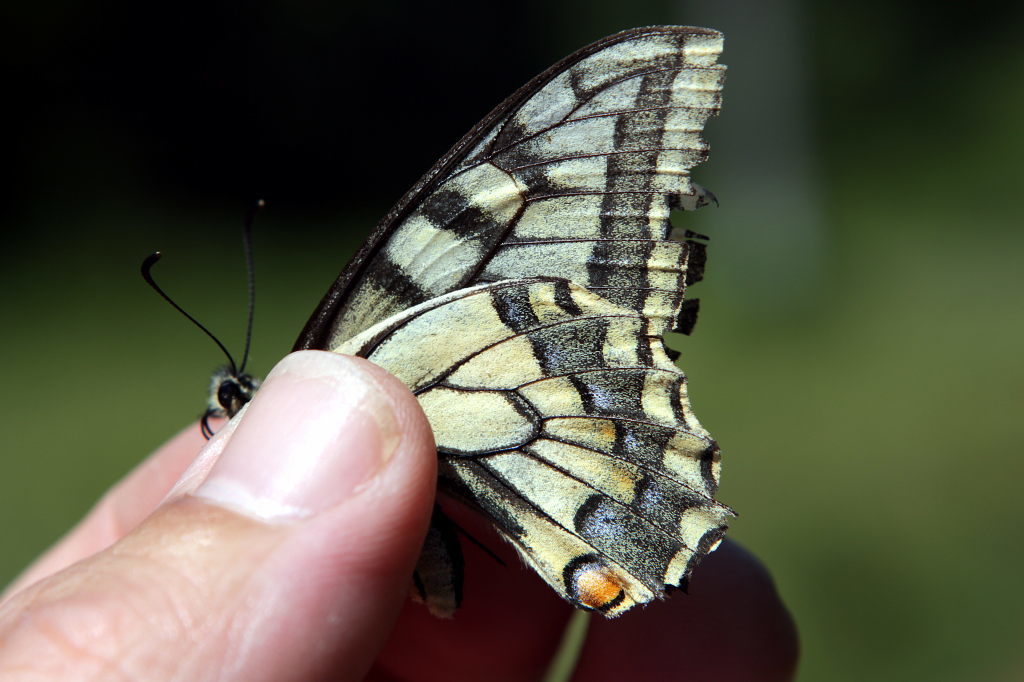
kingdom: Animalia
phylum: Arthropoda
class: Insecta
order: Lepidoptera
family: Papilionidae
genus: Papilio
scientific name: Papilio machaon
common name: Swallowtail
